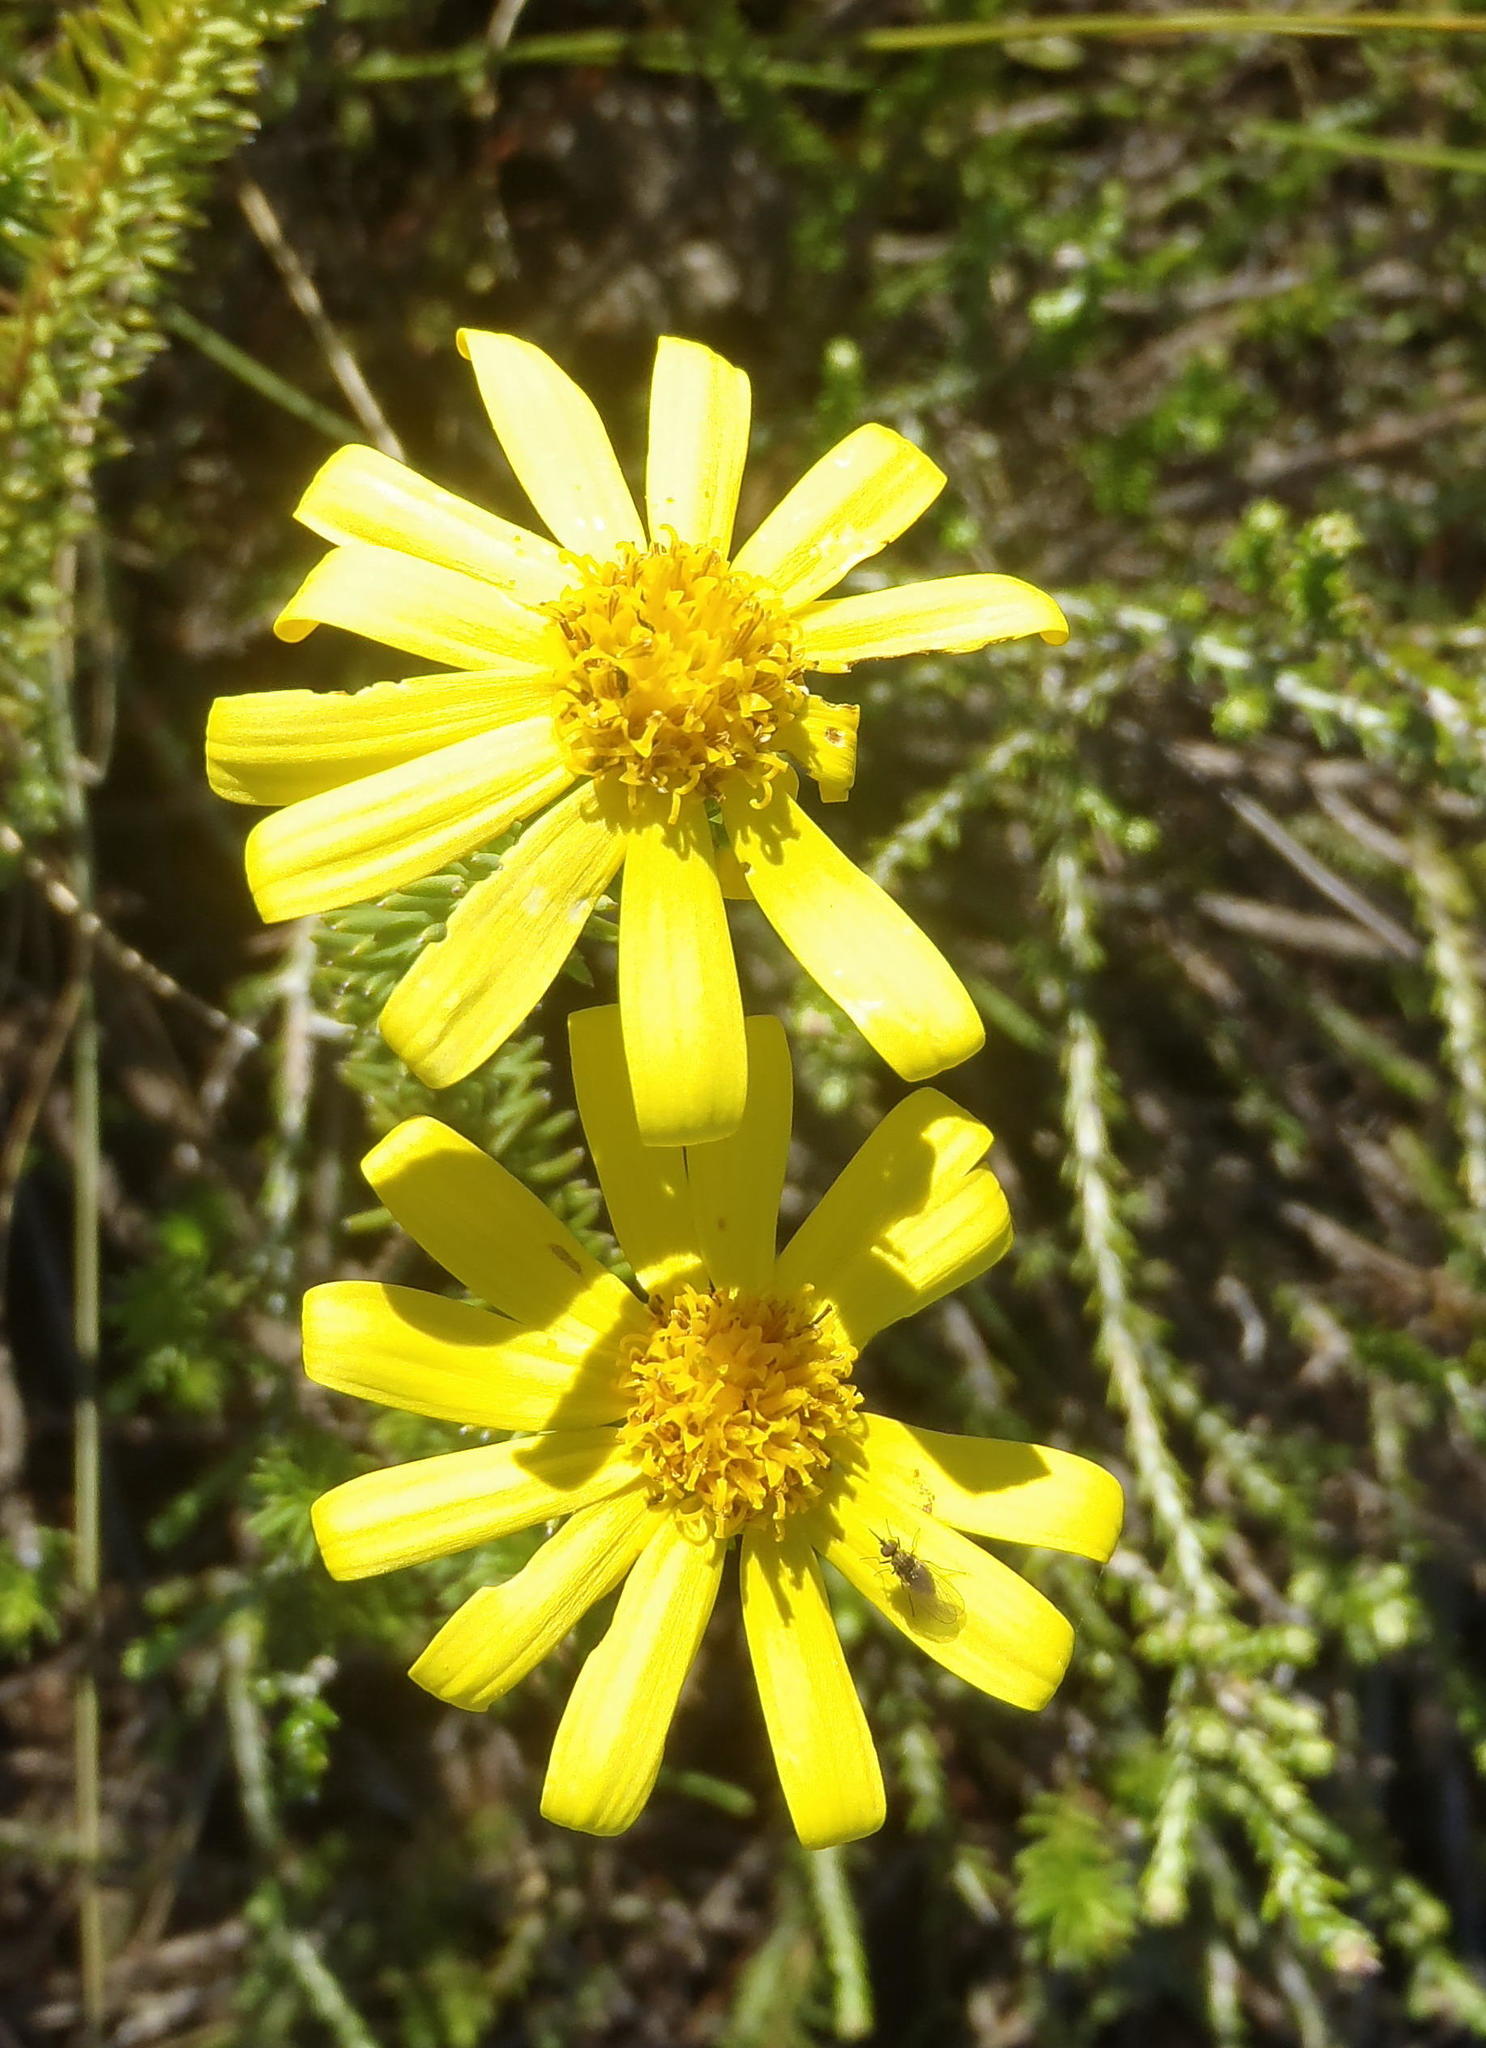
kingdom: Plantae
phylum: Tracheophyta
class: Magnoliopsida
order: Asterales
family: Asteraceae
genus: Senecio
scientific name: Senecio pinifolius
